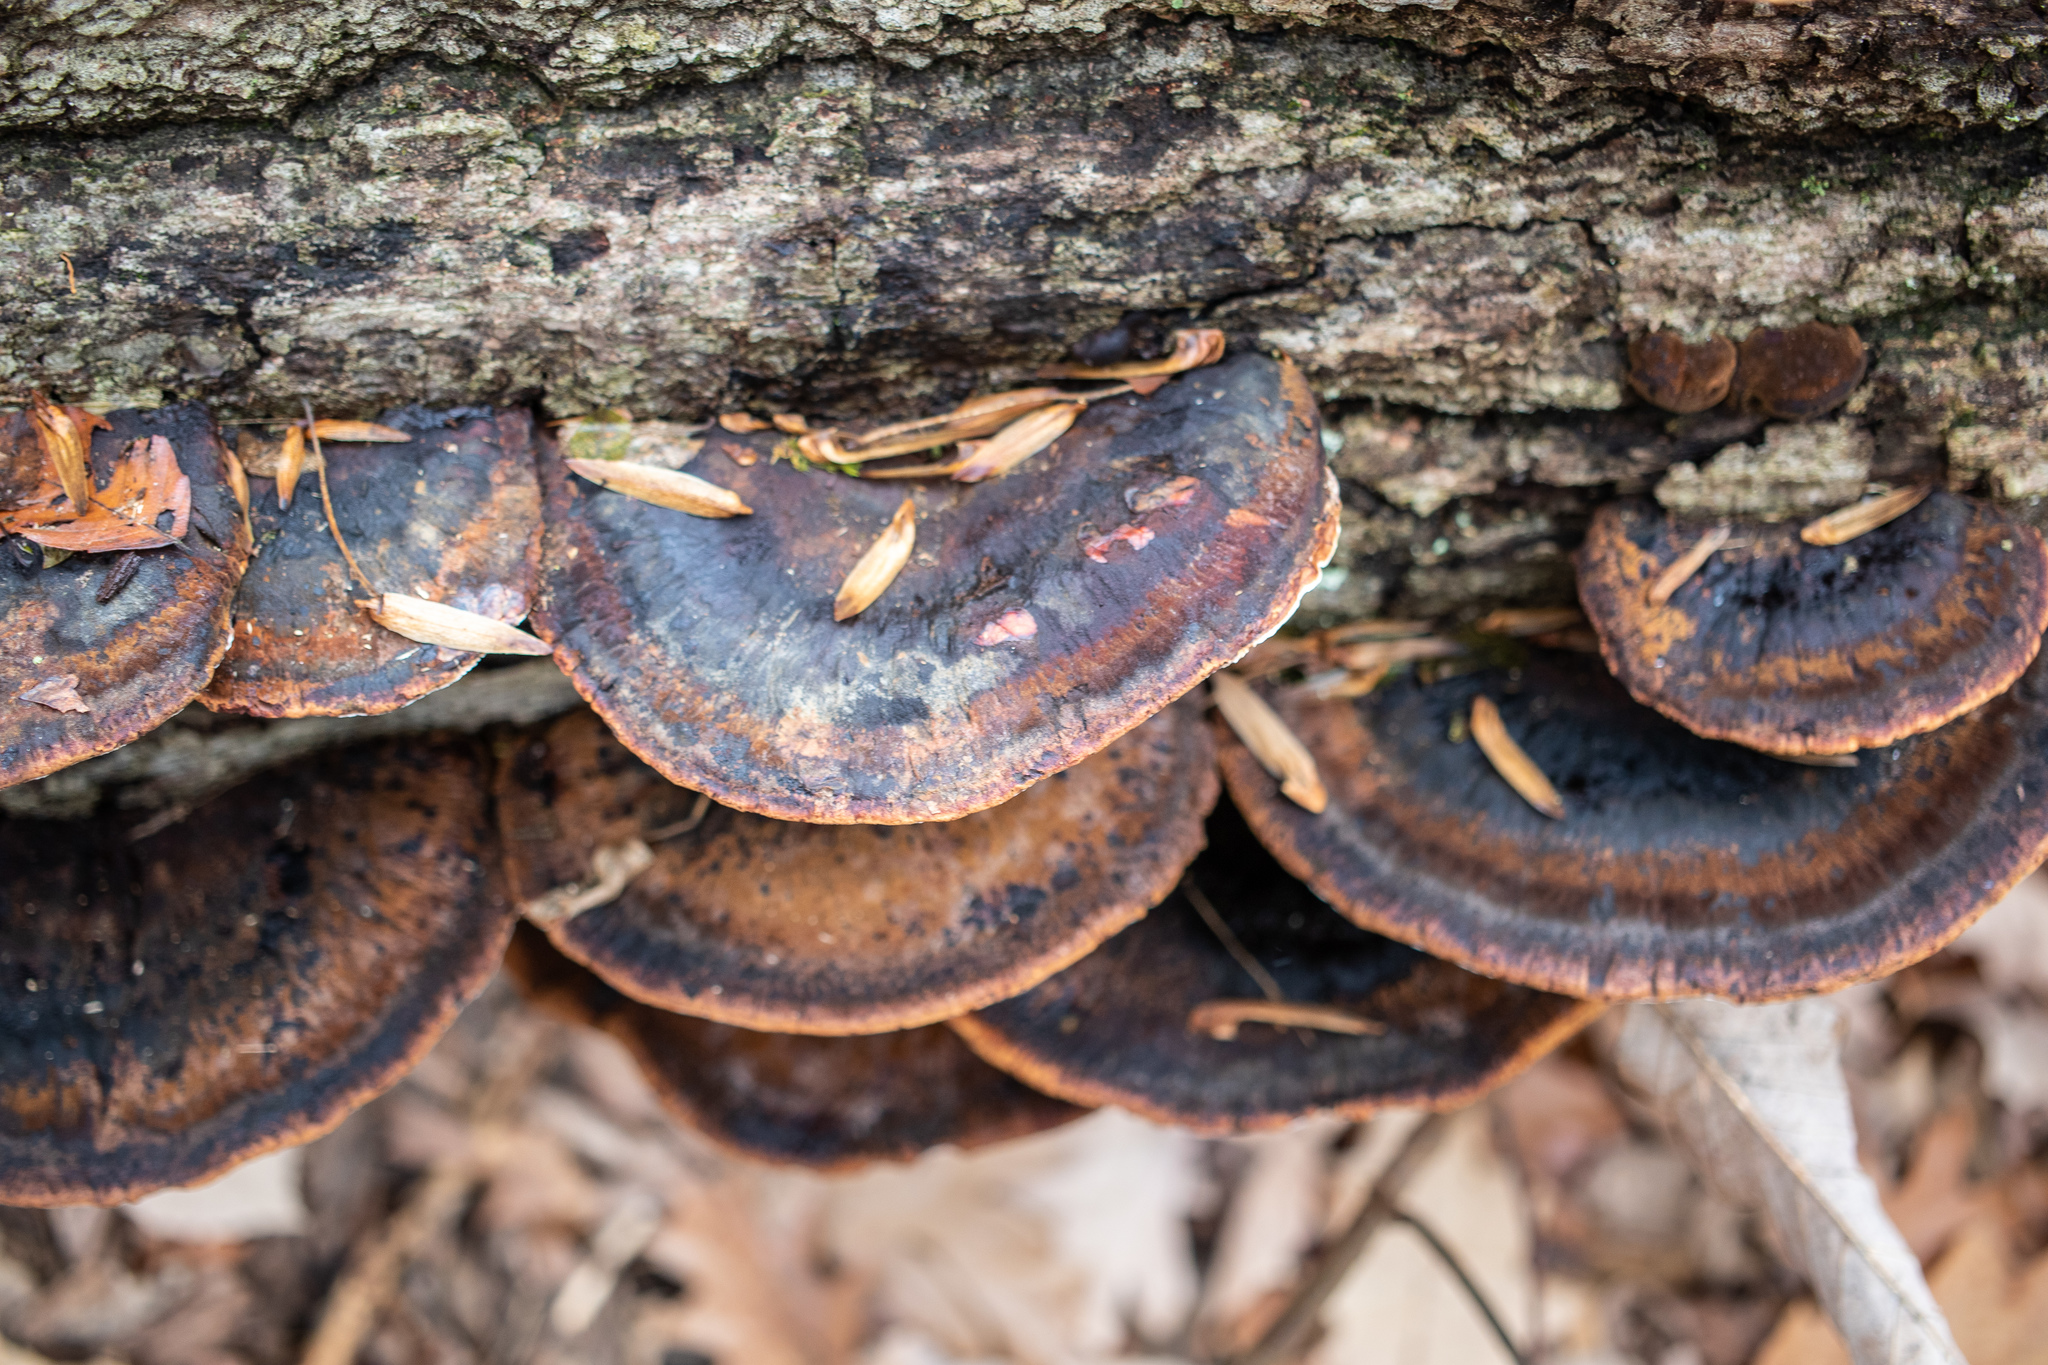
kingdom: Fungi
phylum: Basidiomycota
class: Agaricomycetes
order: Polyporales
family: Ischnodermataceae
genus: Ischnoderma
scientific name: Ischnoderma resinosum
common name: Resinous polypore
